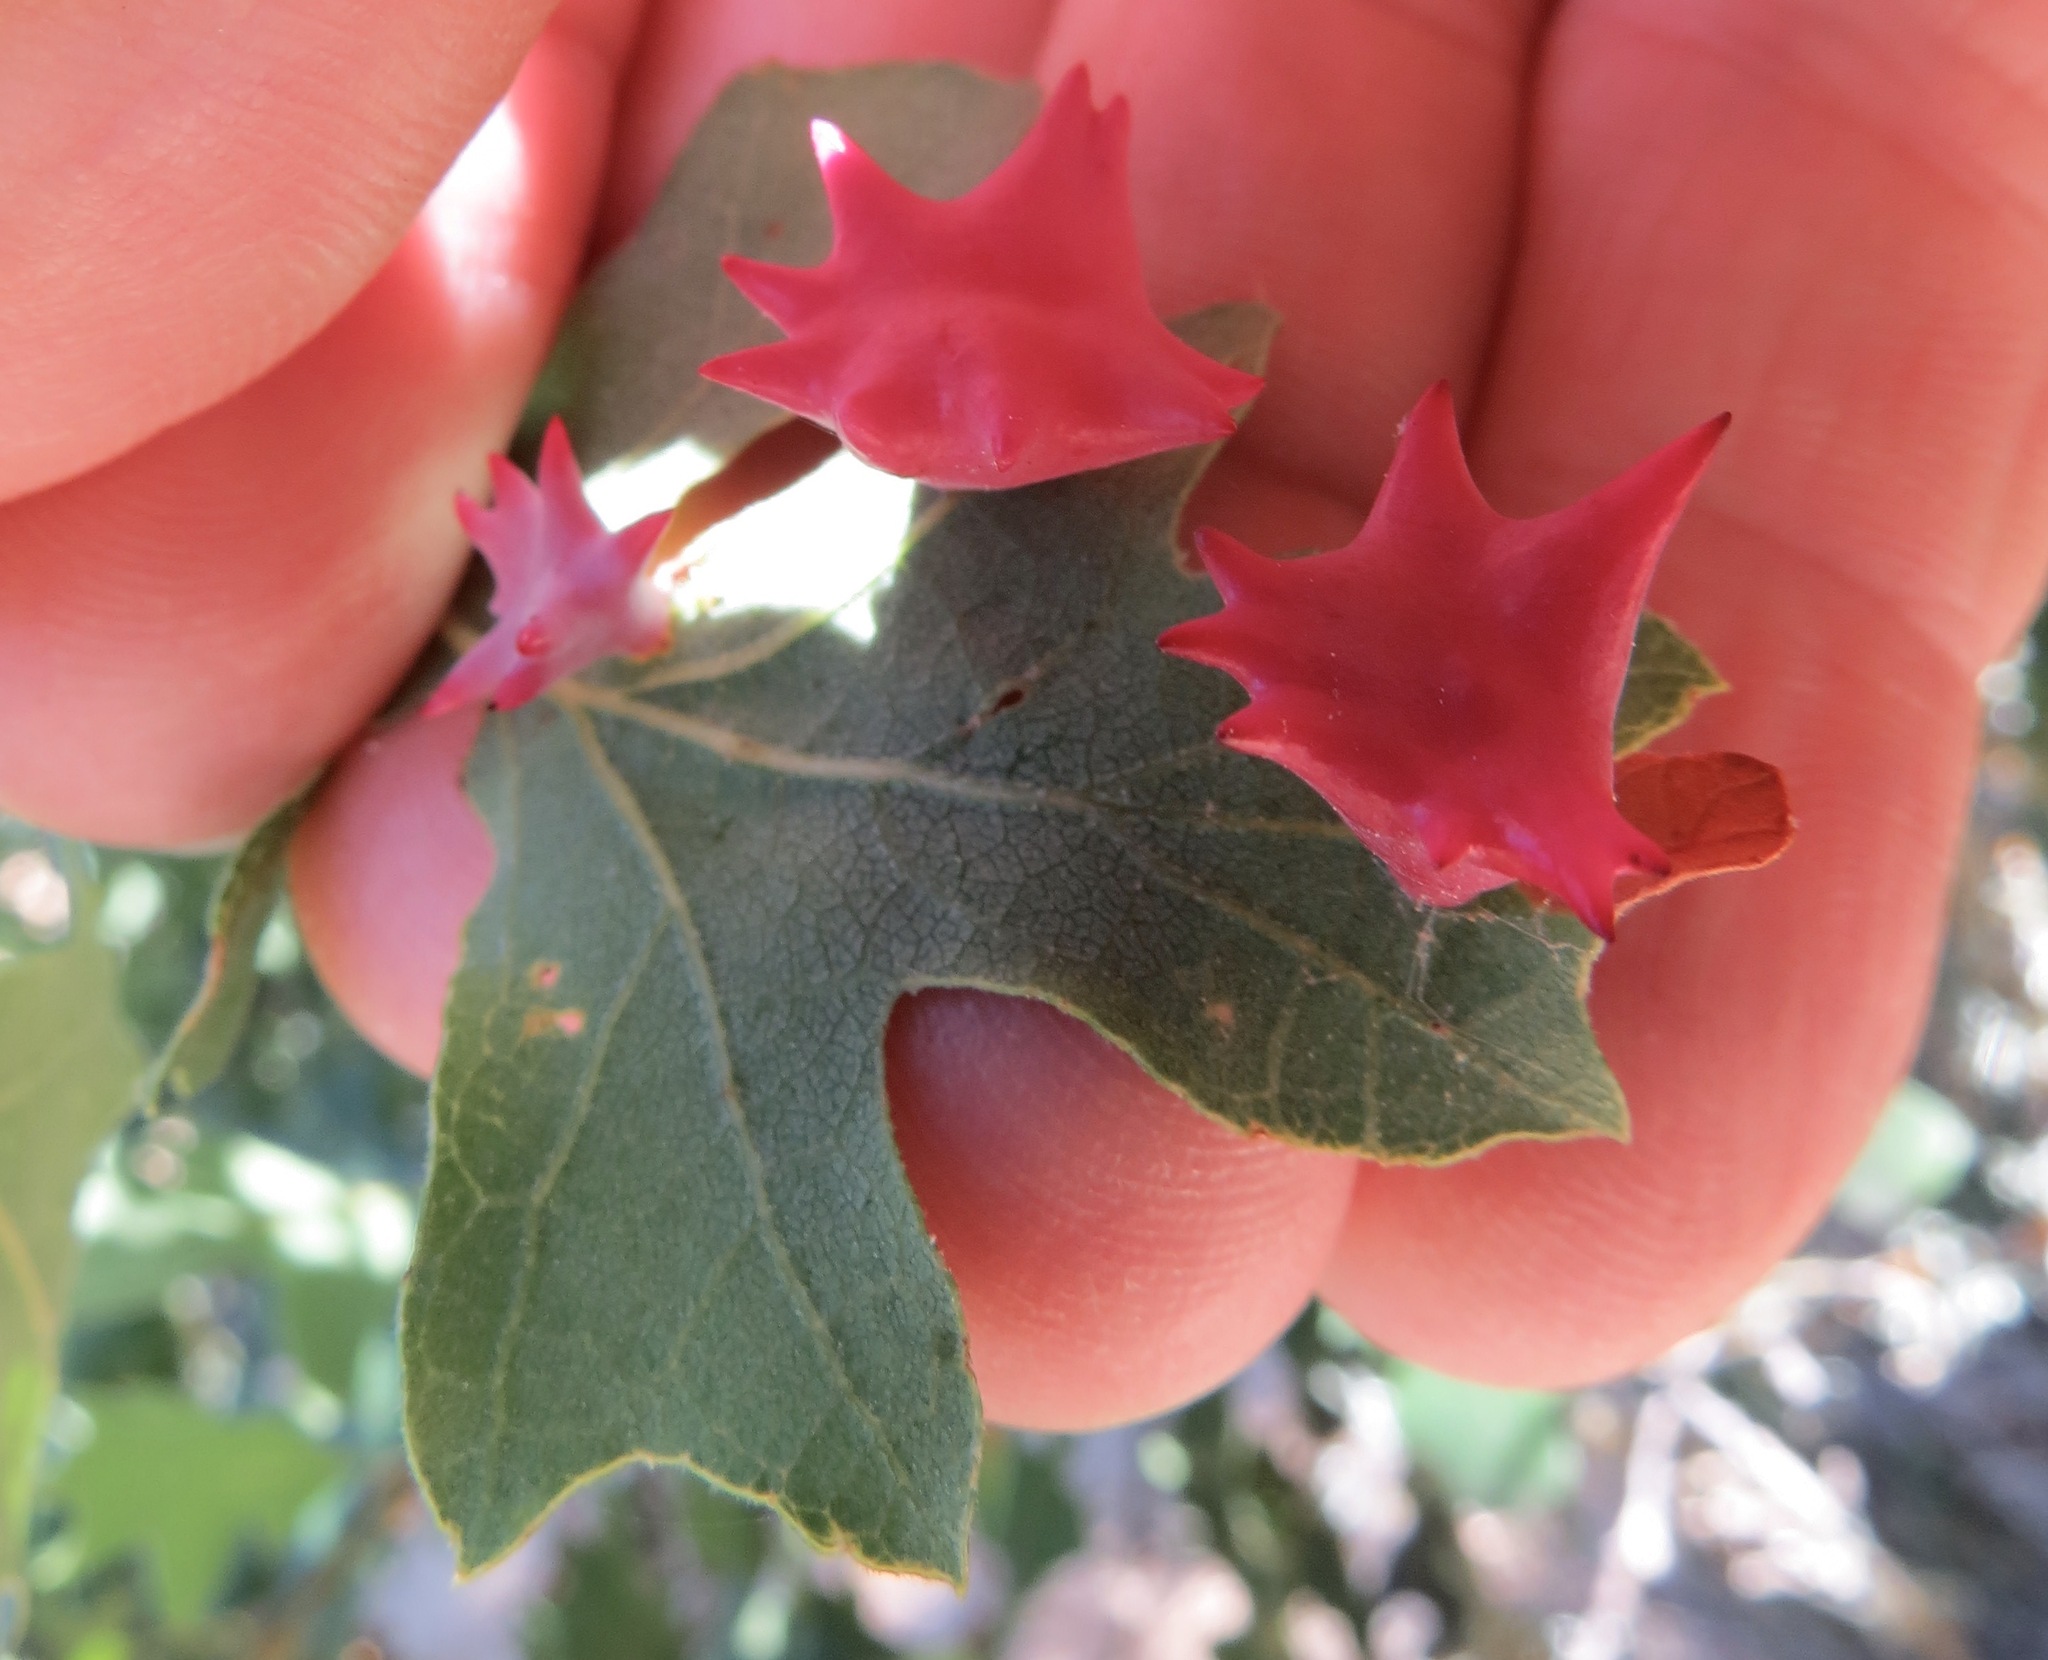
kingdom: Animalia
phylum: Arthropoda
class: Insecta
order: Hymenoptera
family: Cynipidae
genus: Cynips
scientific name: Cynips douglasi
